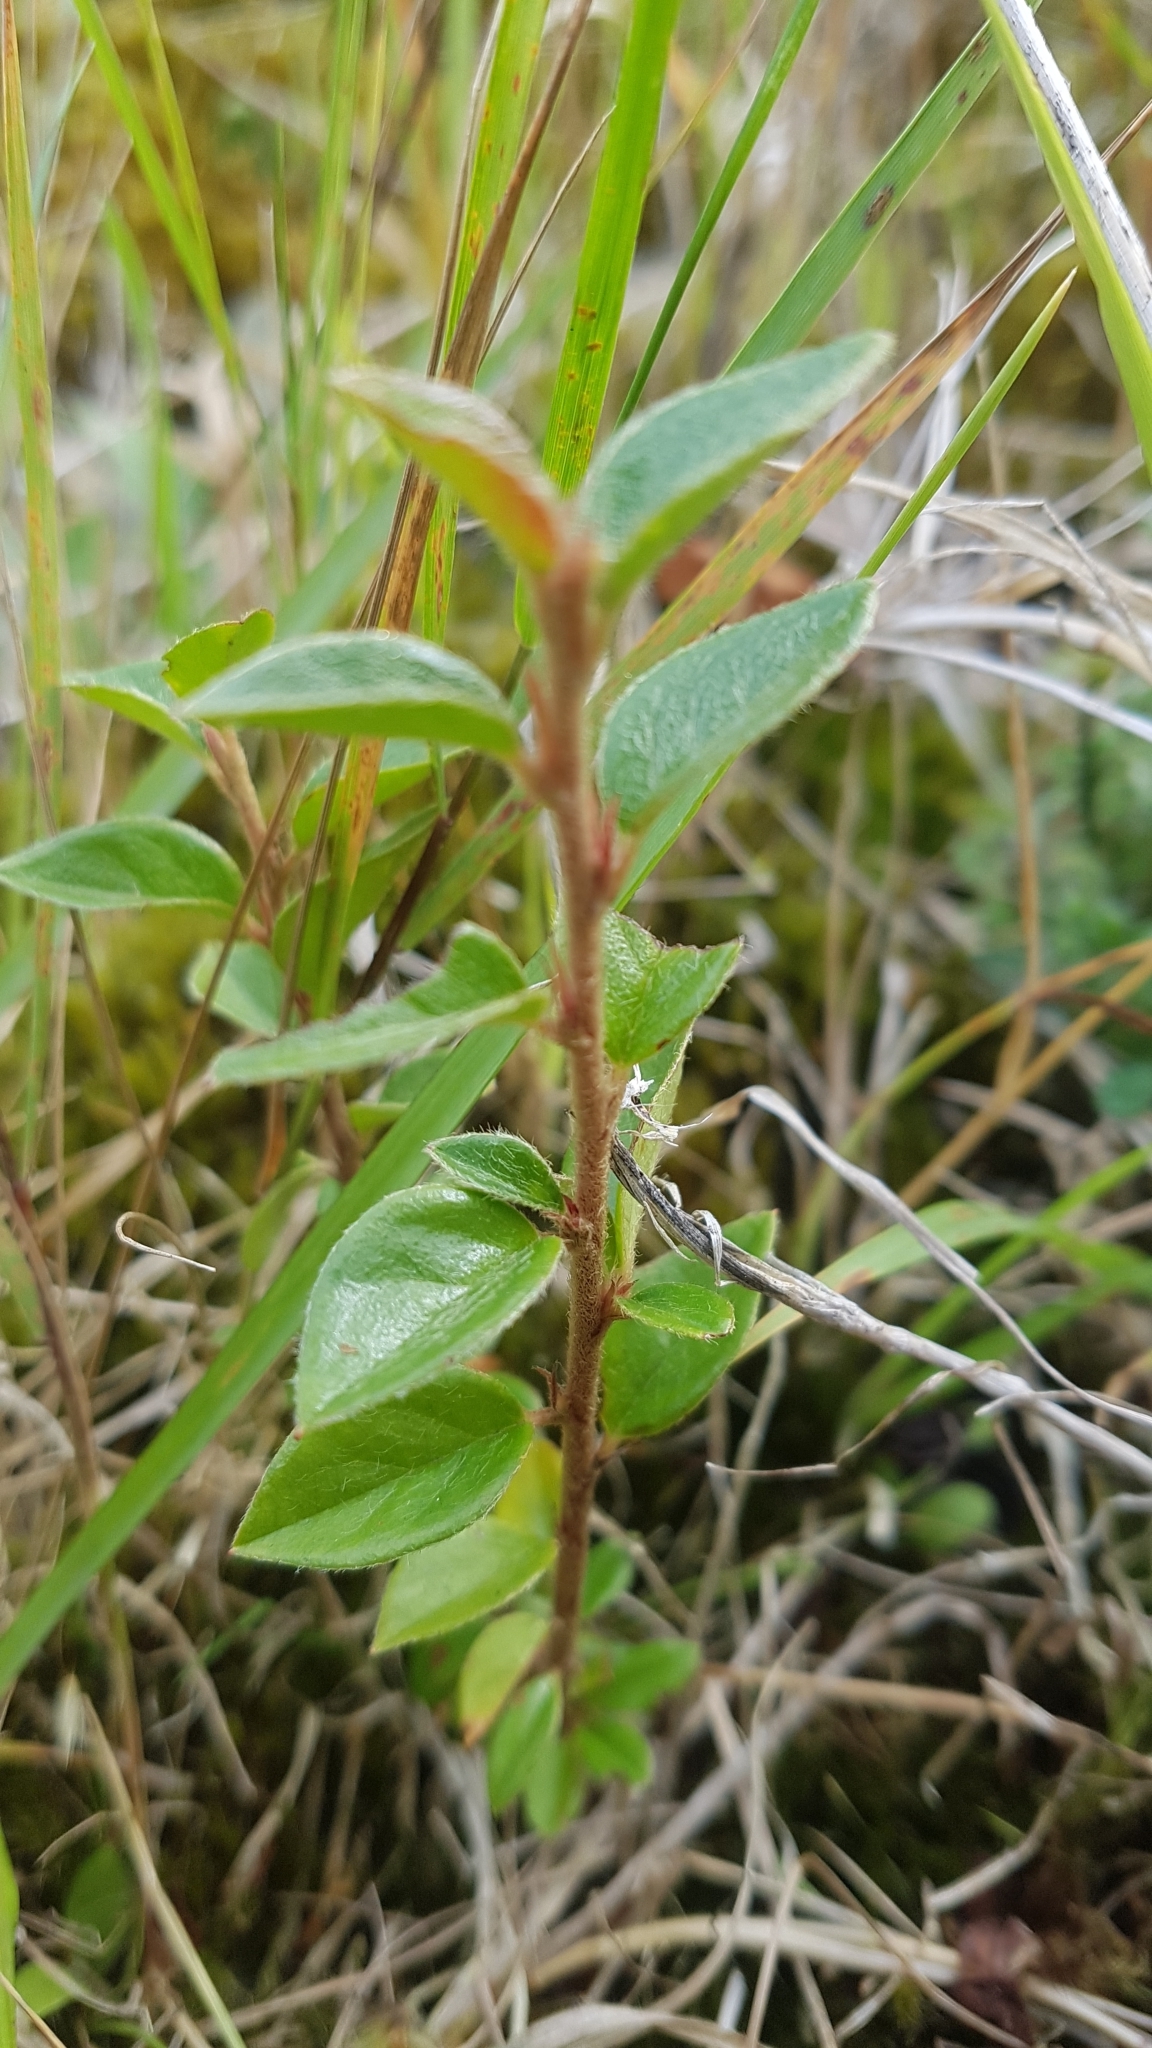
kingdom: Plantae
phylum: Tracheophyta
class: Magnoliopsida
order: Rosales
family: Rosaceae
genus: Cotoneaster
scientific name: Cotoneaster simonsii
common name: Himalayan cotoneaster
